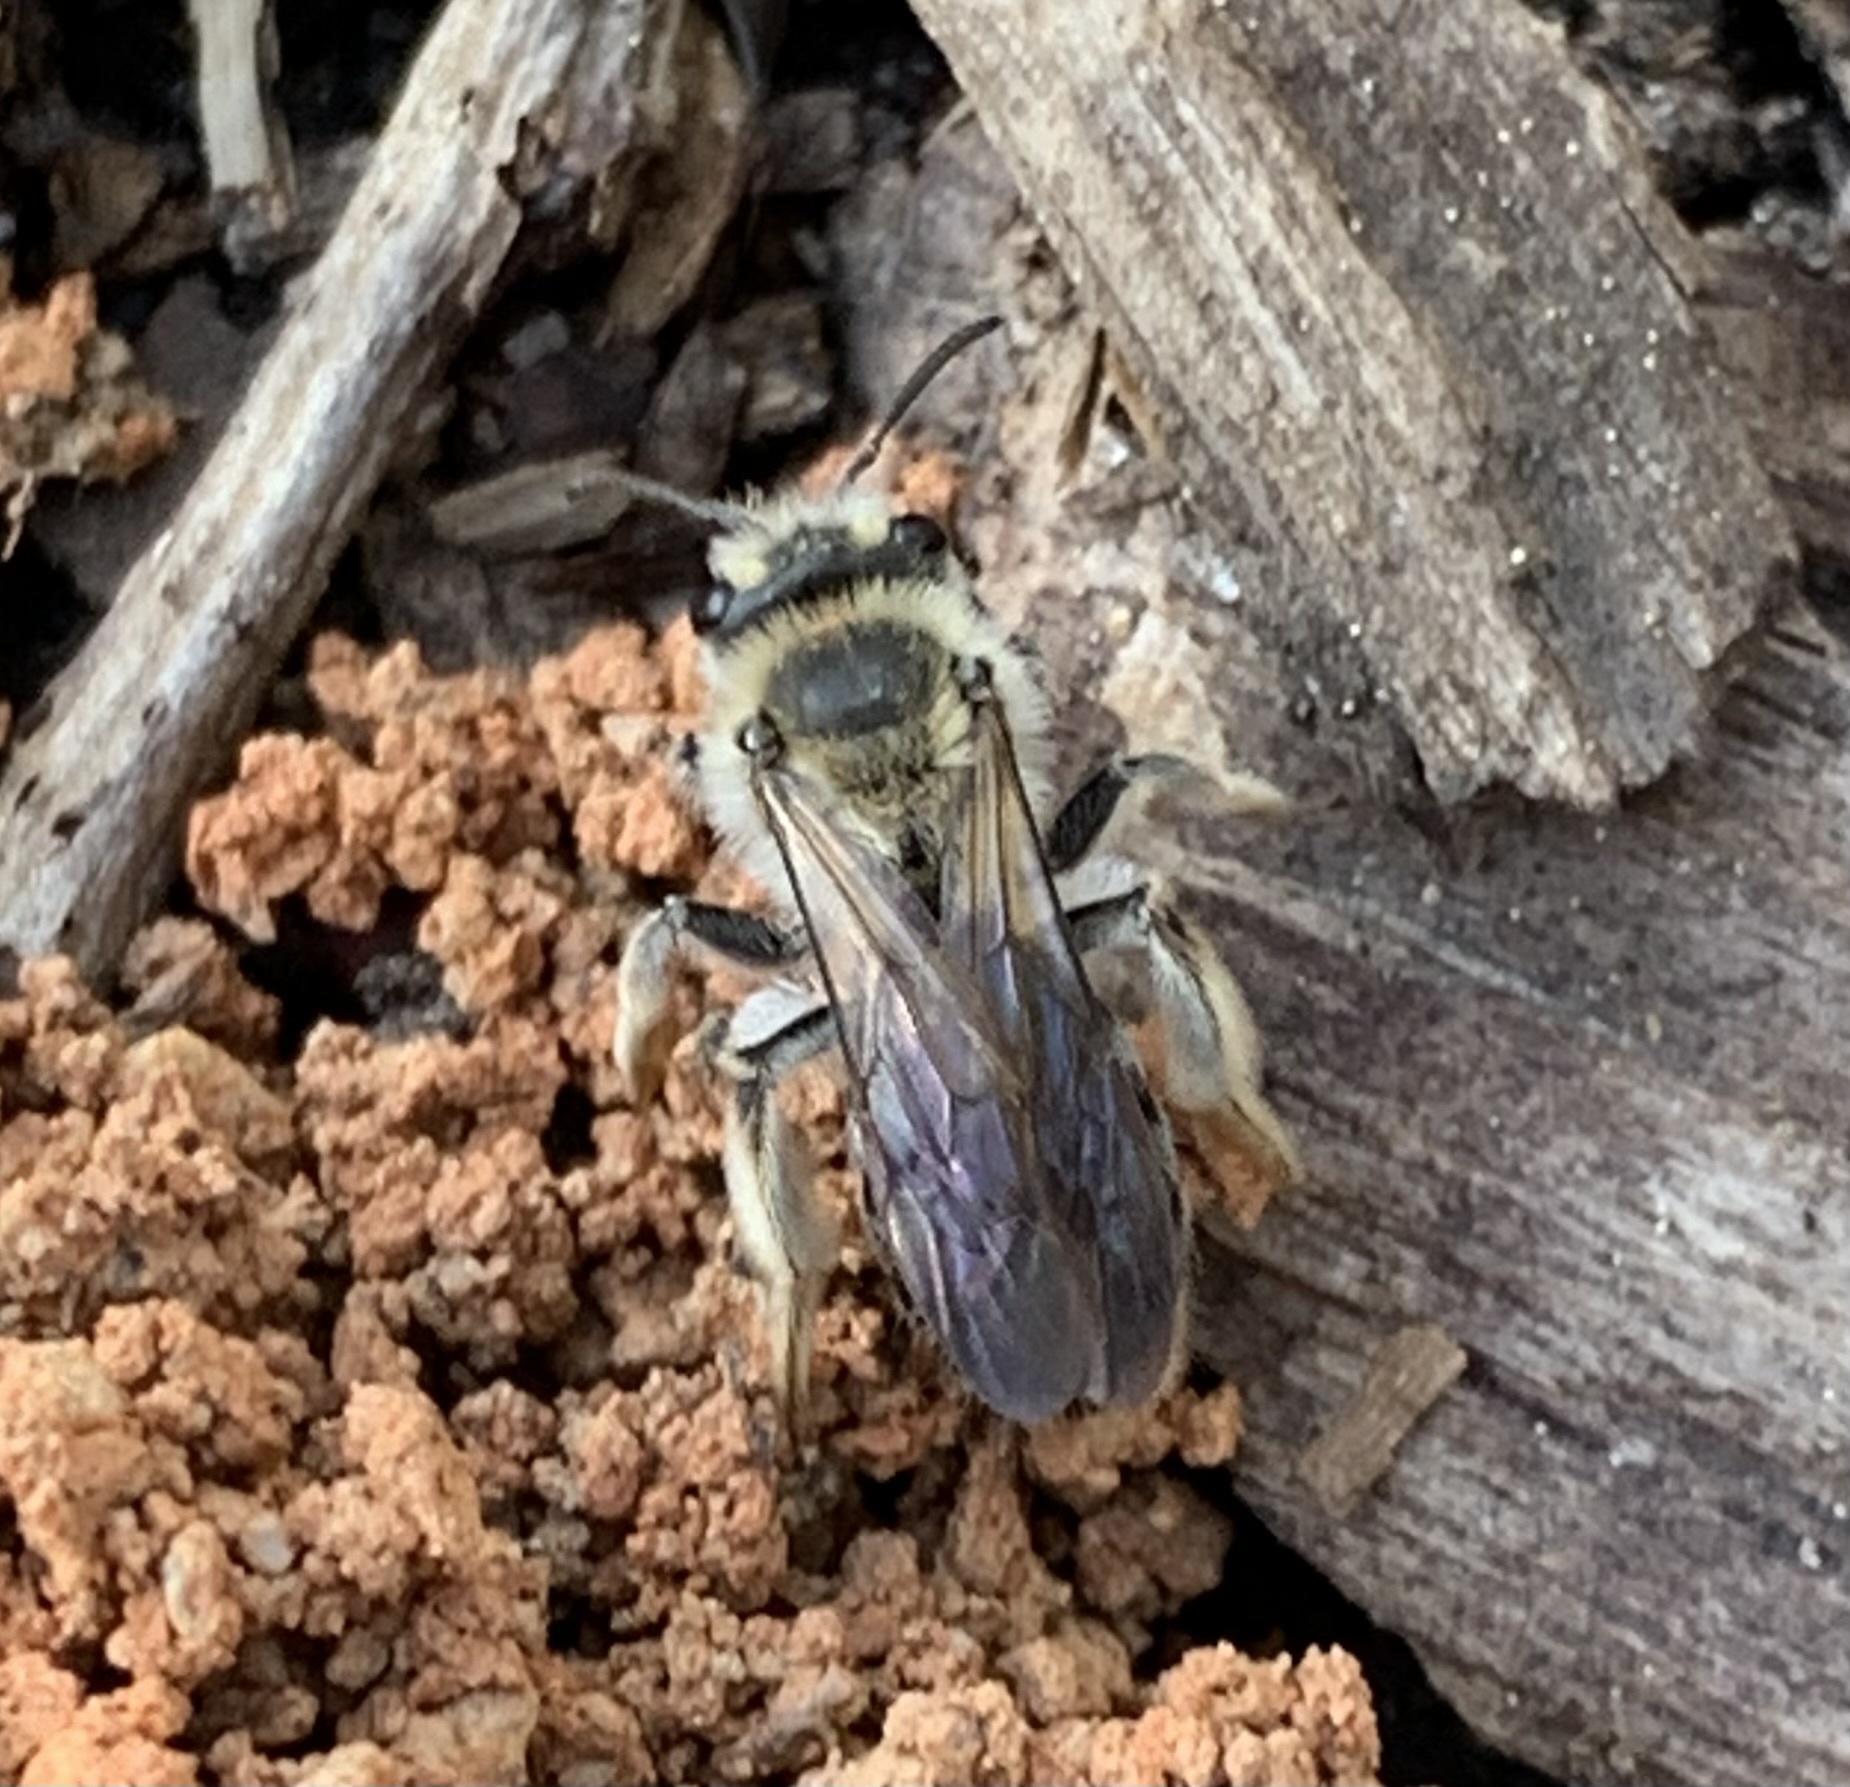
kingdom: Animalia
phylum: Arthropoda
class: Insecta
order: Hymenoptera
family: Andrenidae
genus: Andrena
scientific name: Andrena barbara
